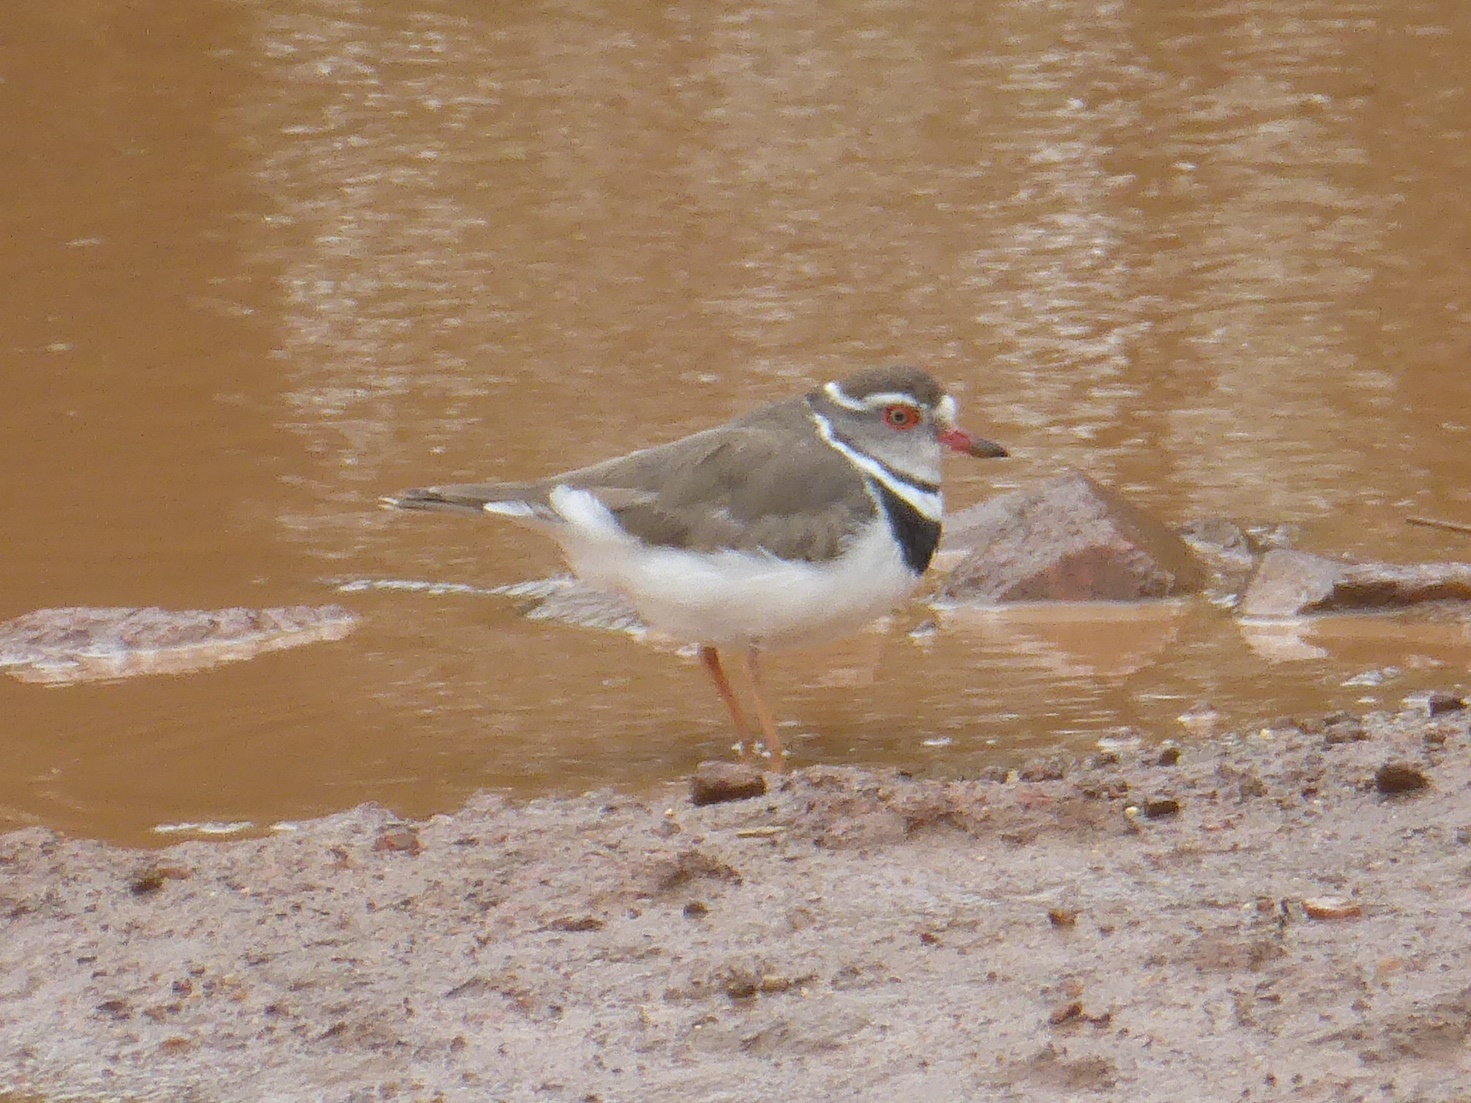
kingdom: Animalia
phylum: Chordata
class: Aves
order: Charadriiformes
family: Charadriidae
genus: Charadrius
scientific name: Charadrius tricollaris
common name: Three-banded plover
